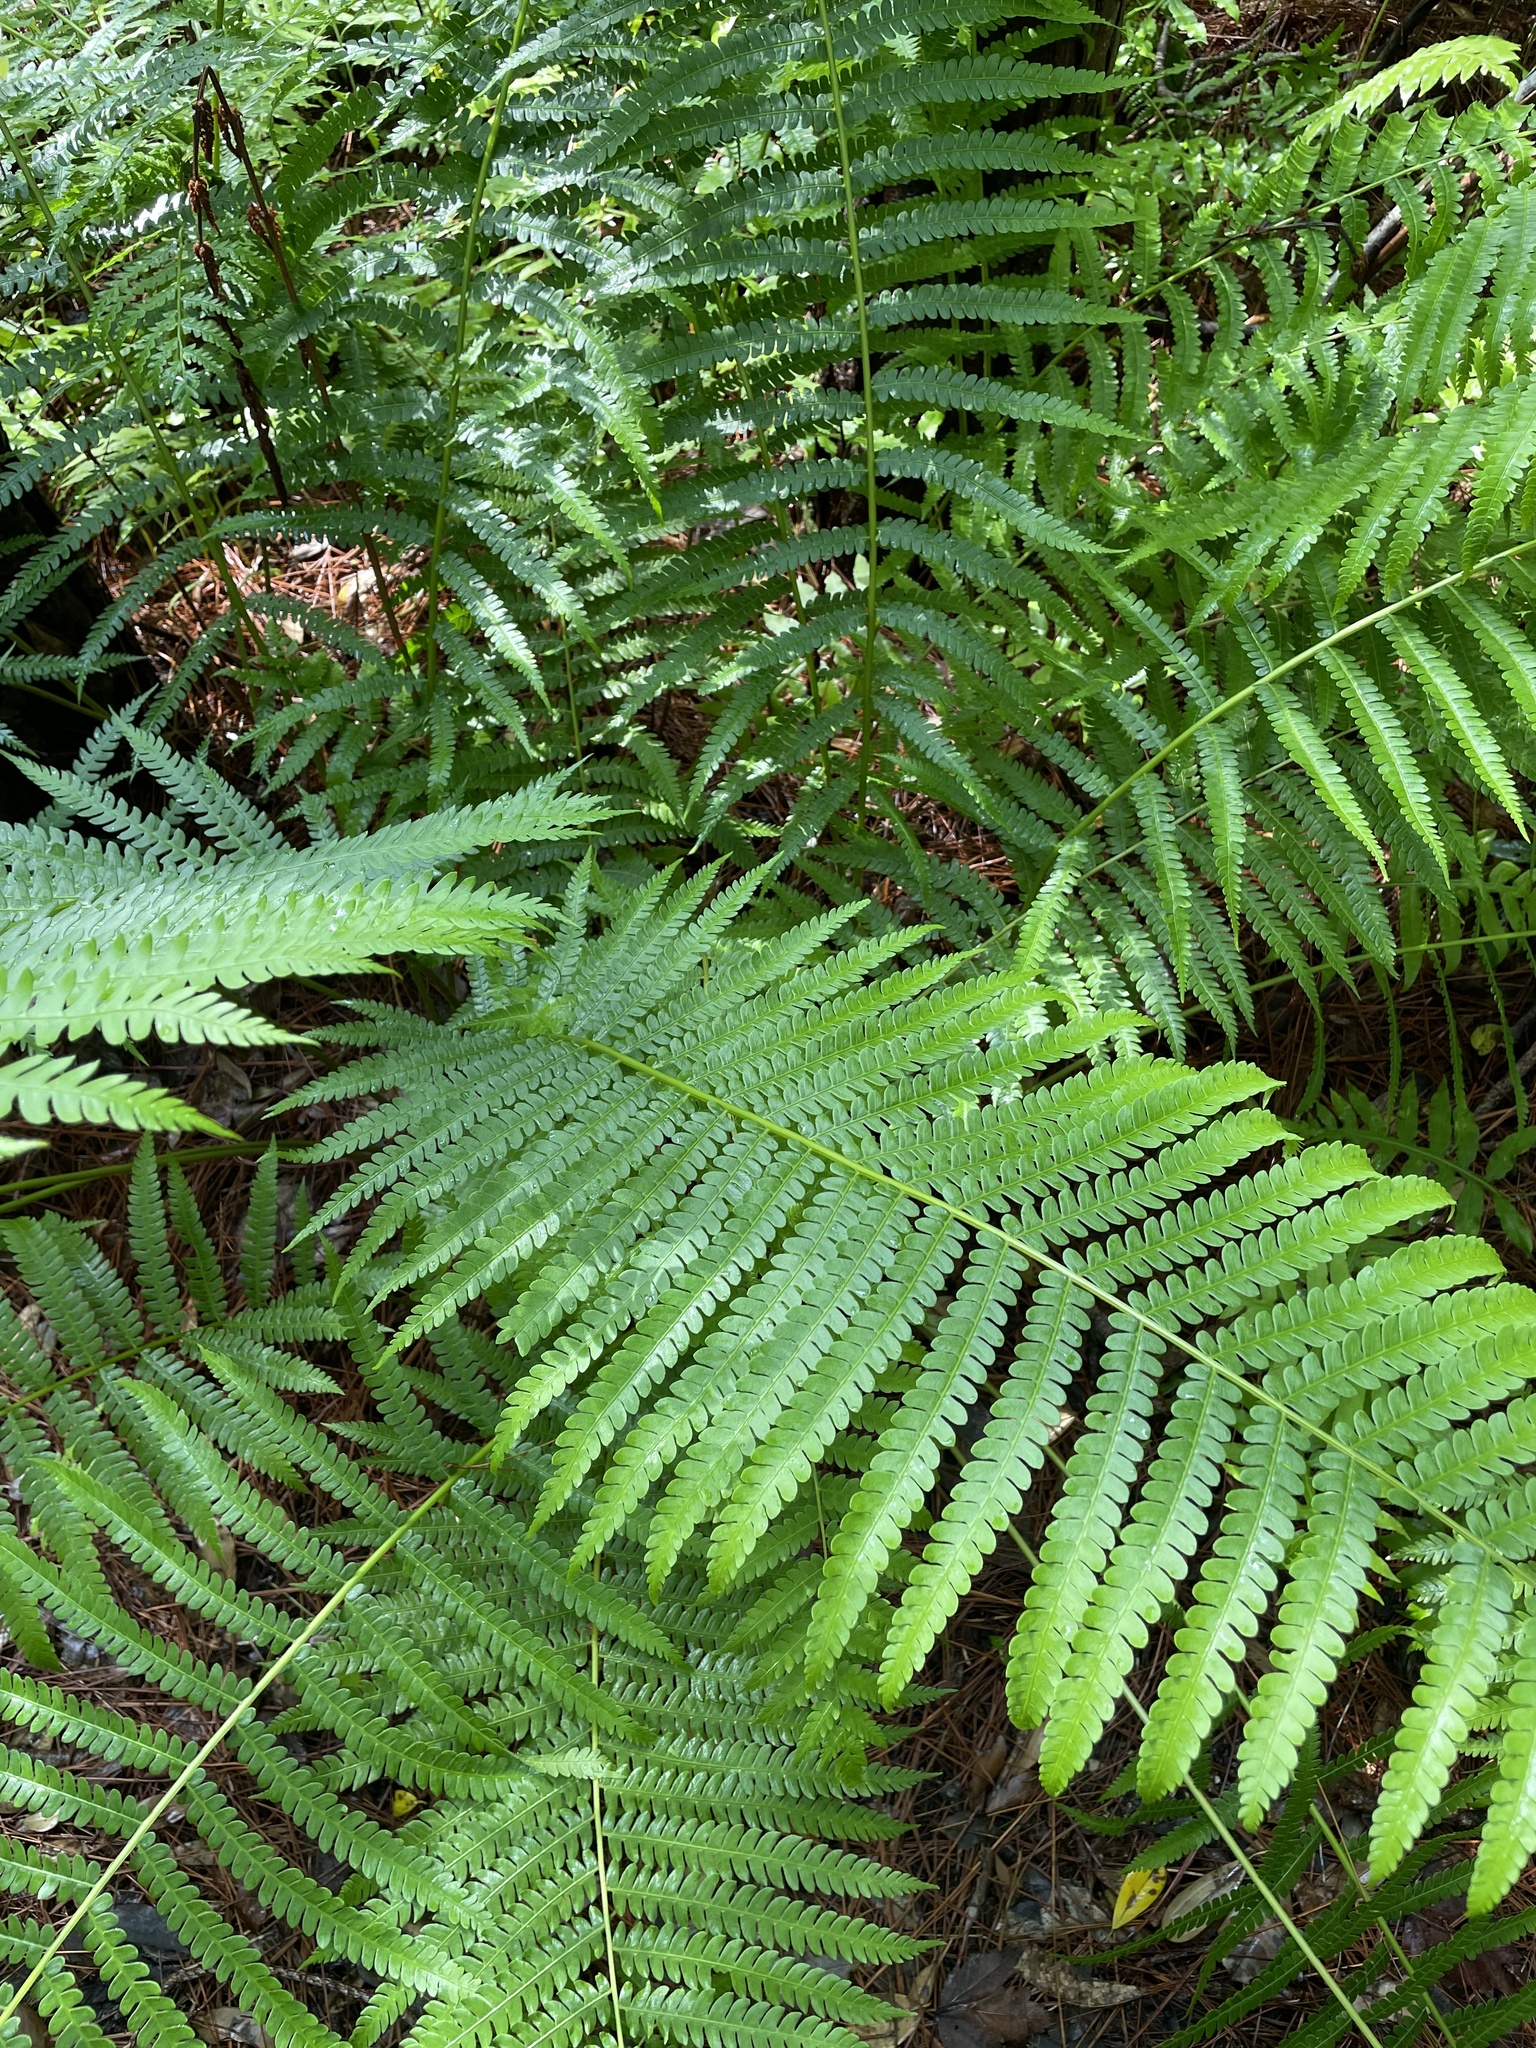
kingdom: Plantae
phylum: Tracheophyta
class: Polypodiopsida
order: Osmundales
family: Osmundaceae
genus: Osmundastrum
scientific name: Osmundastrum cinnamomeum
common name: Cinnamon fern
